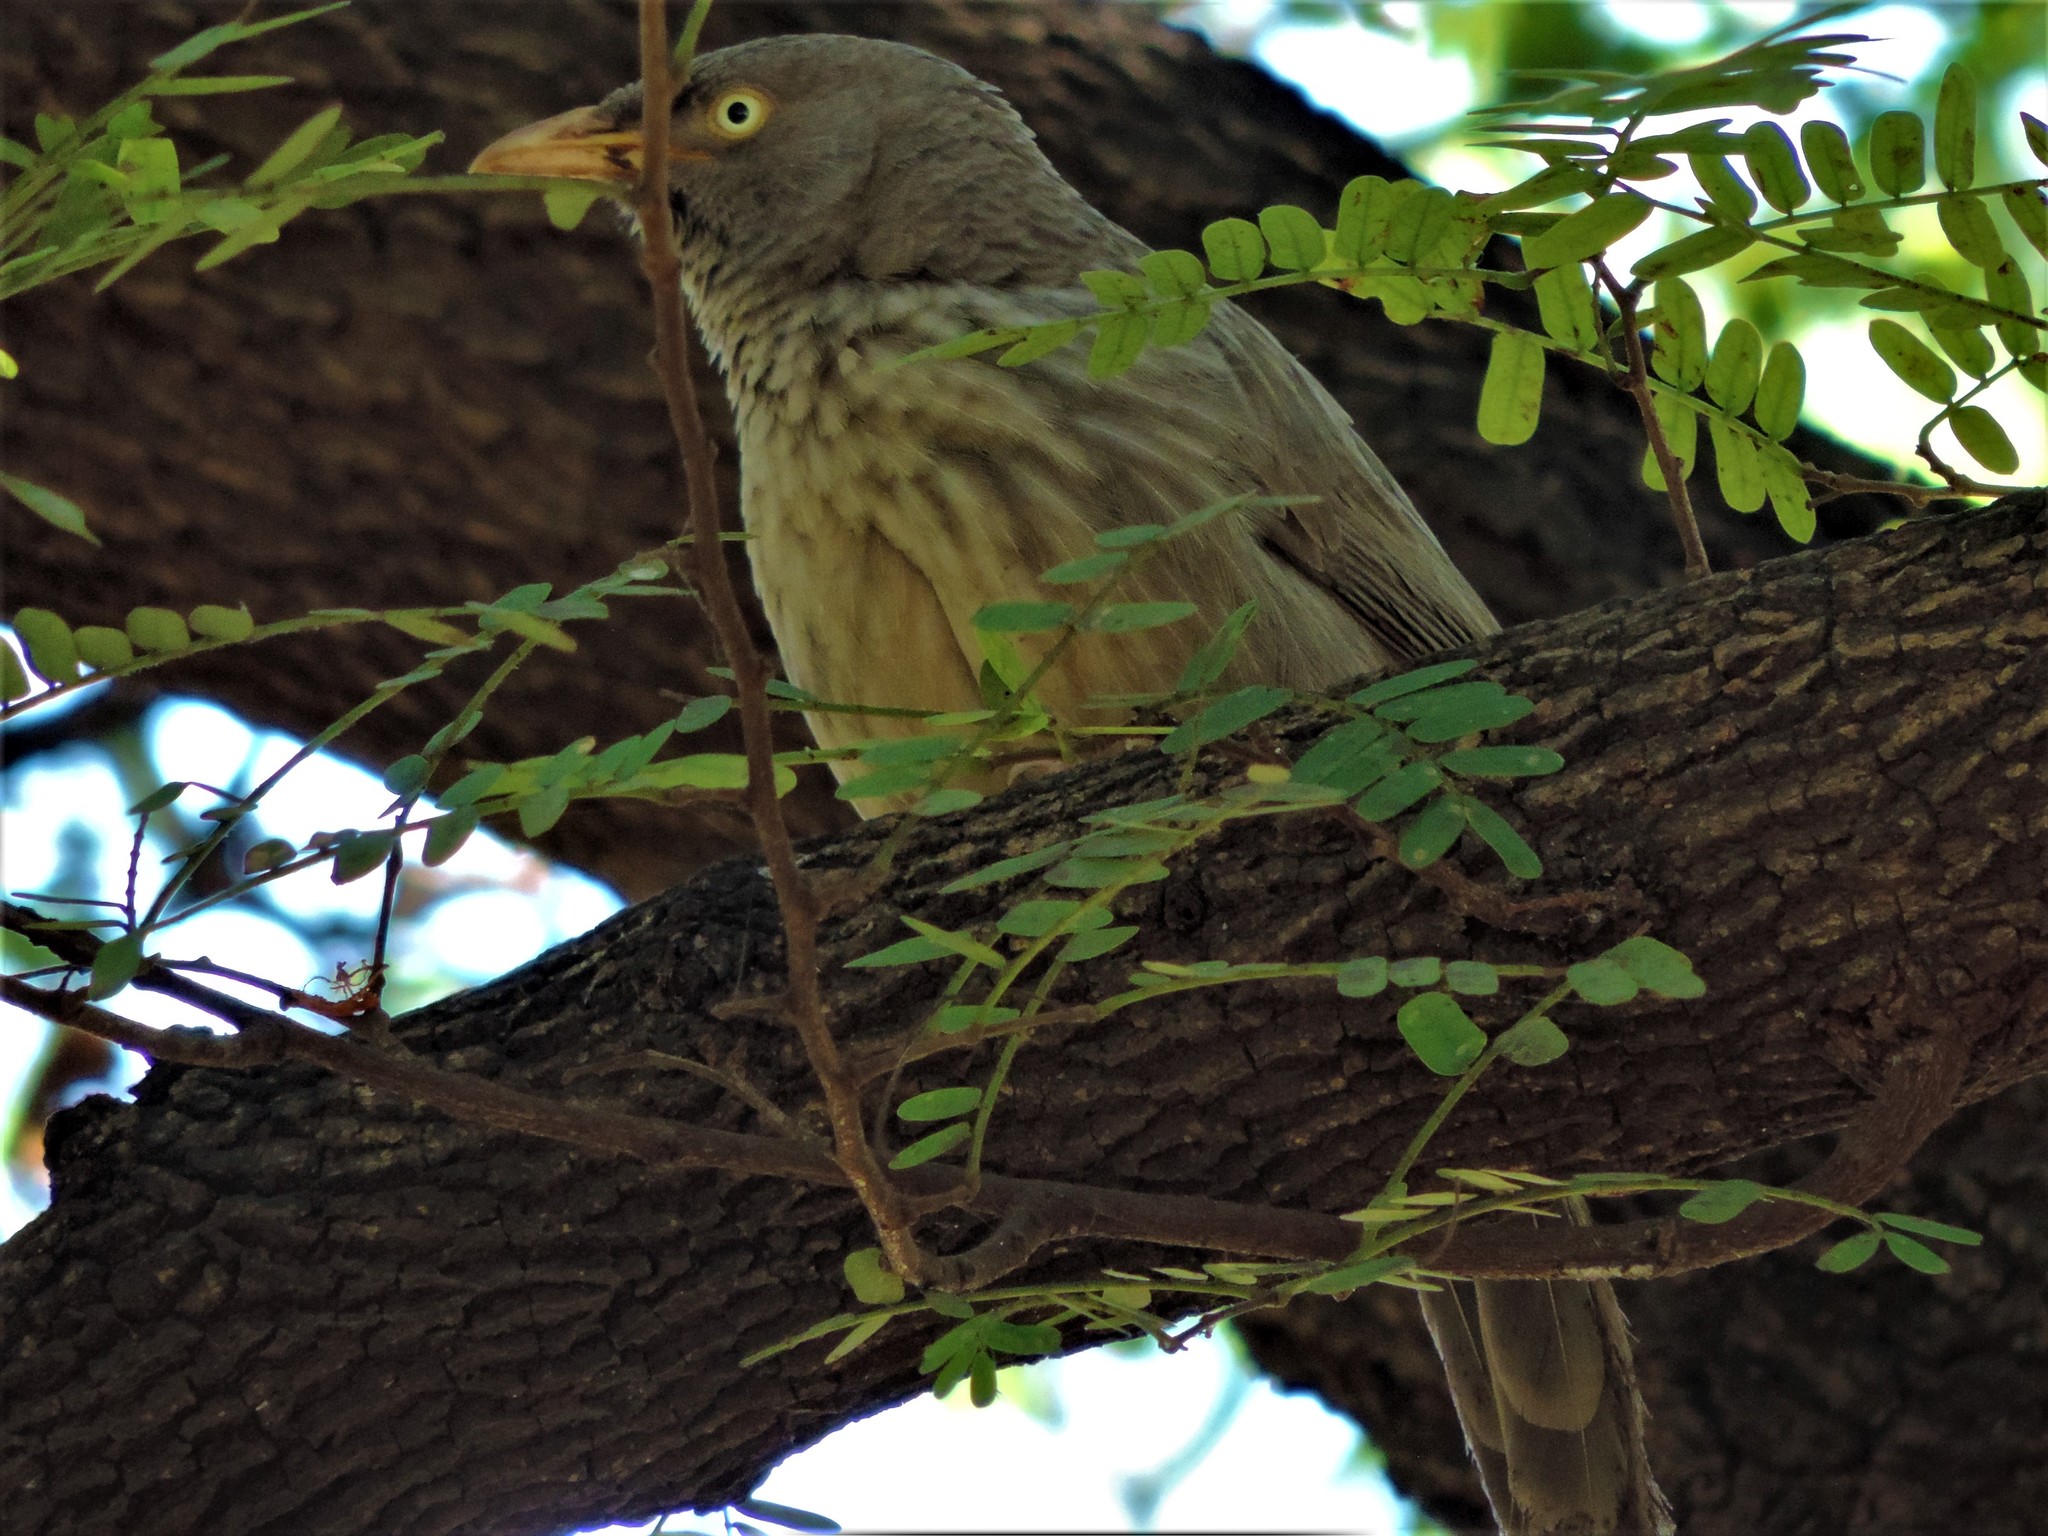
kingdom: Animalia
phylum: Chordata
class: Aves
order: Passeriformes
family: Leiothrichidae
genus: Turdoides
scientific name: Turdoides striata
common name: Jungle babbler
